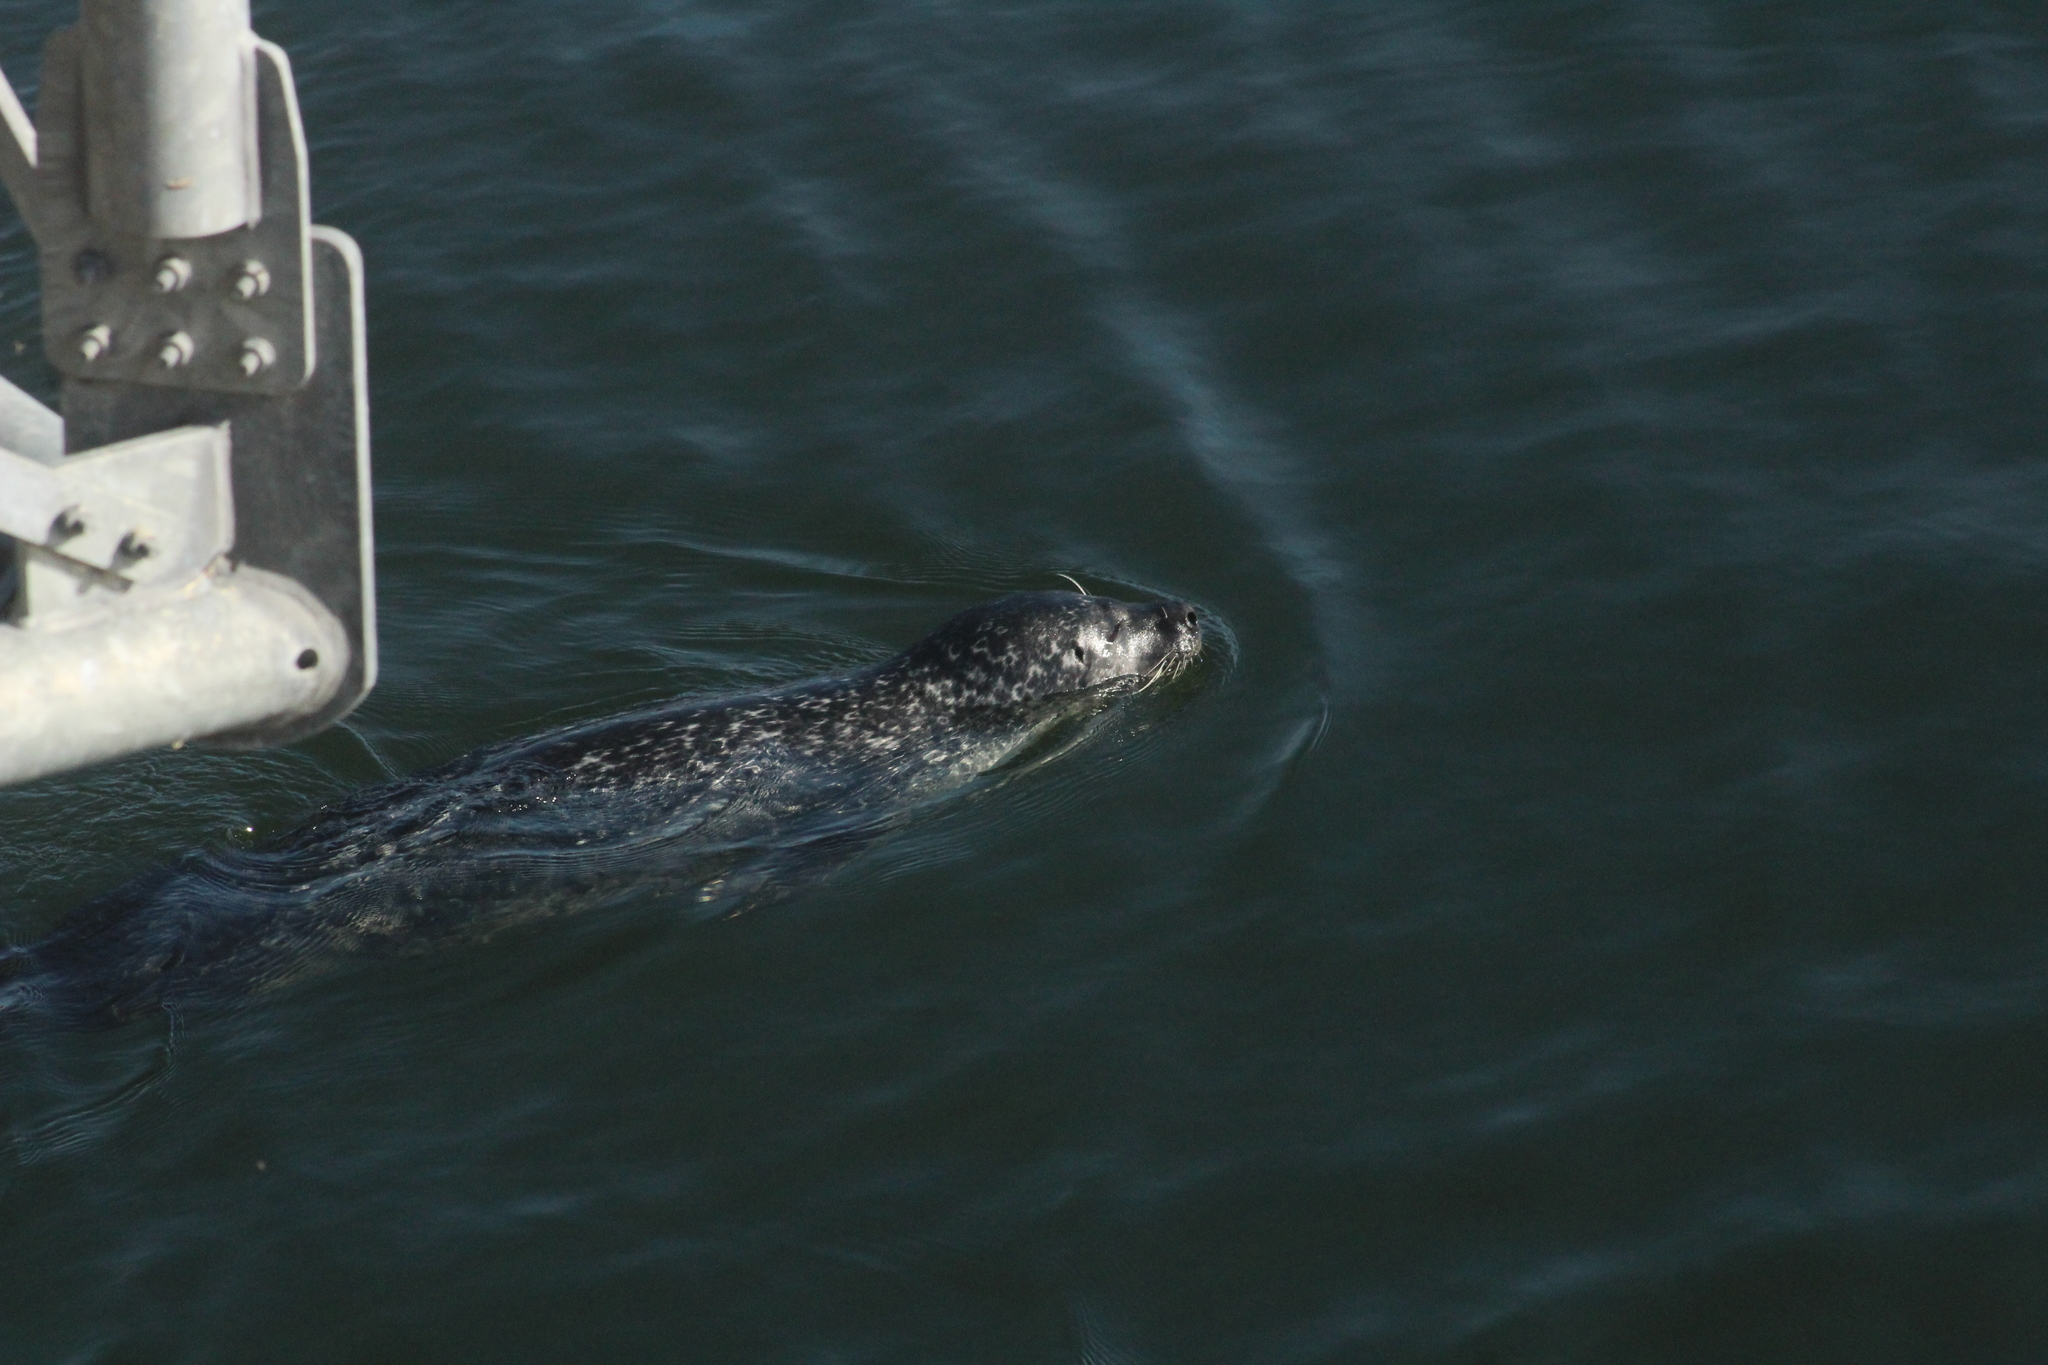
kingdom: Animalia
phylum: Chordata
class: Mammalia
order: Carnivora
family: Phocidae
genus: Phoca
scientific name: Phoca vitulina
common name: Harbor seal
